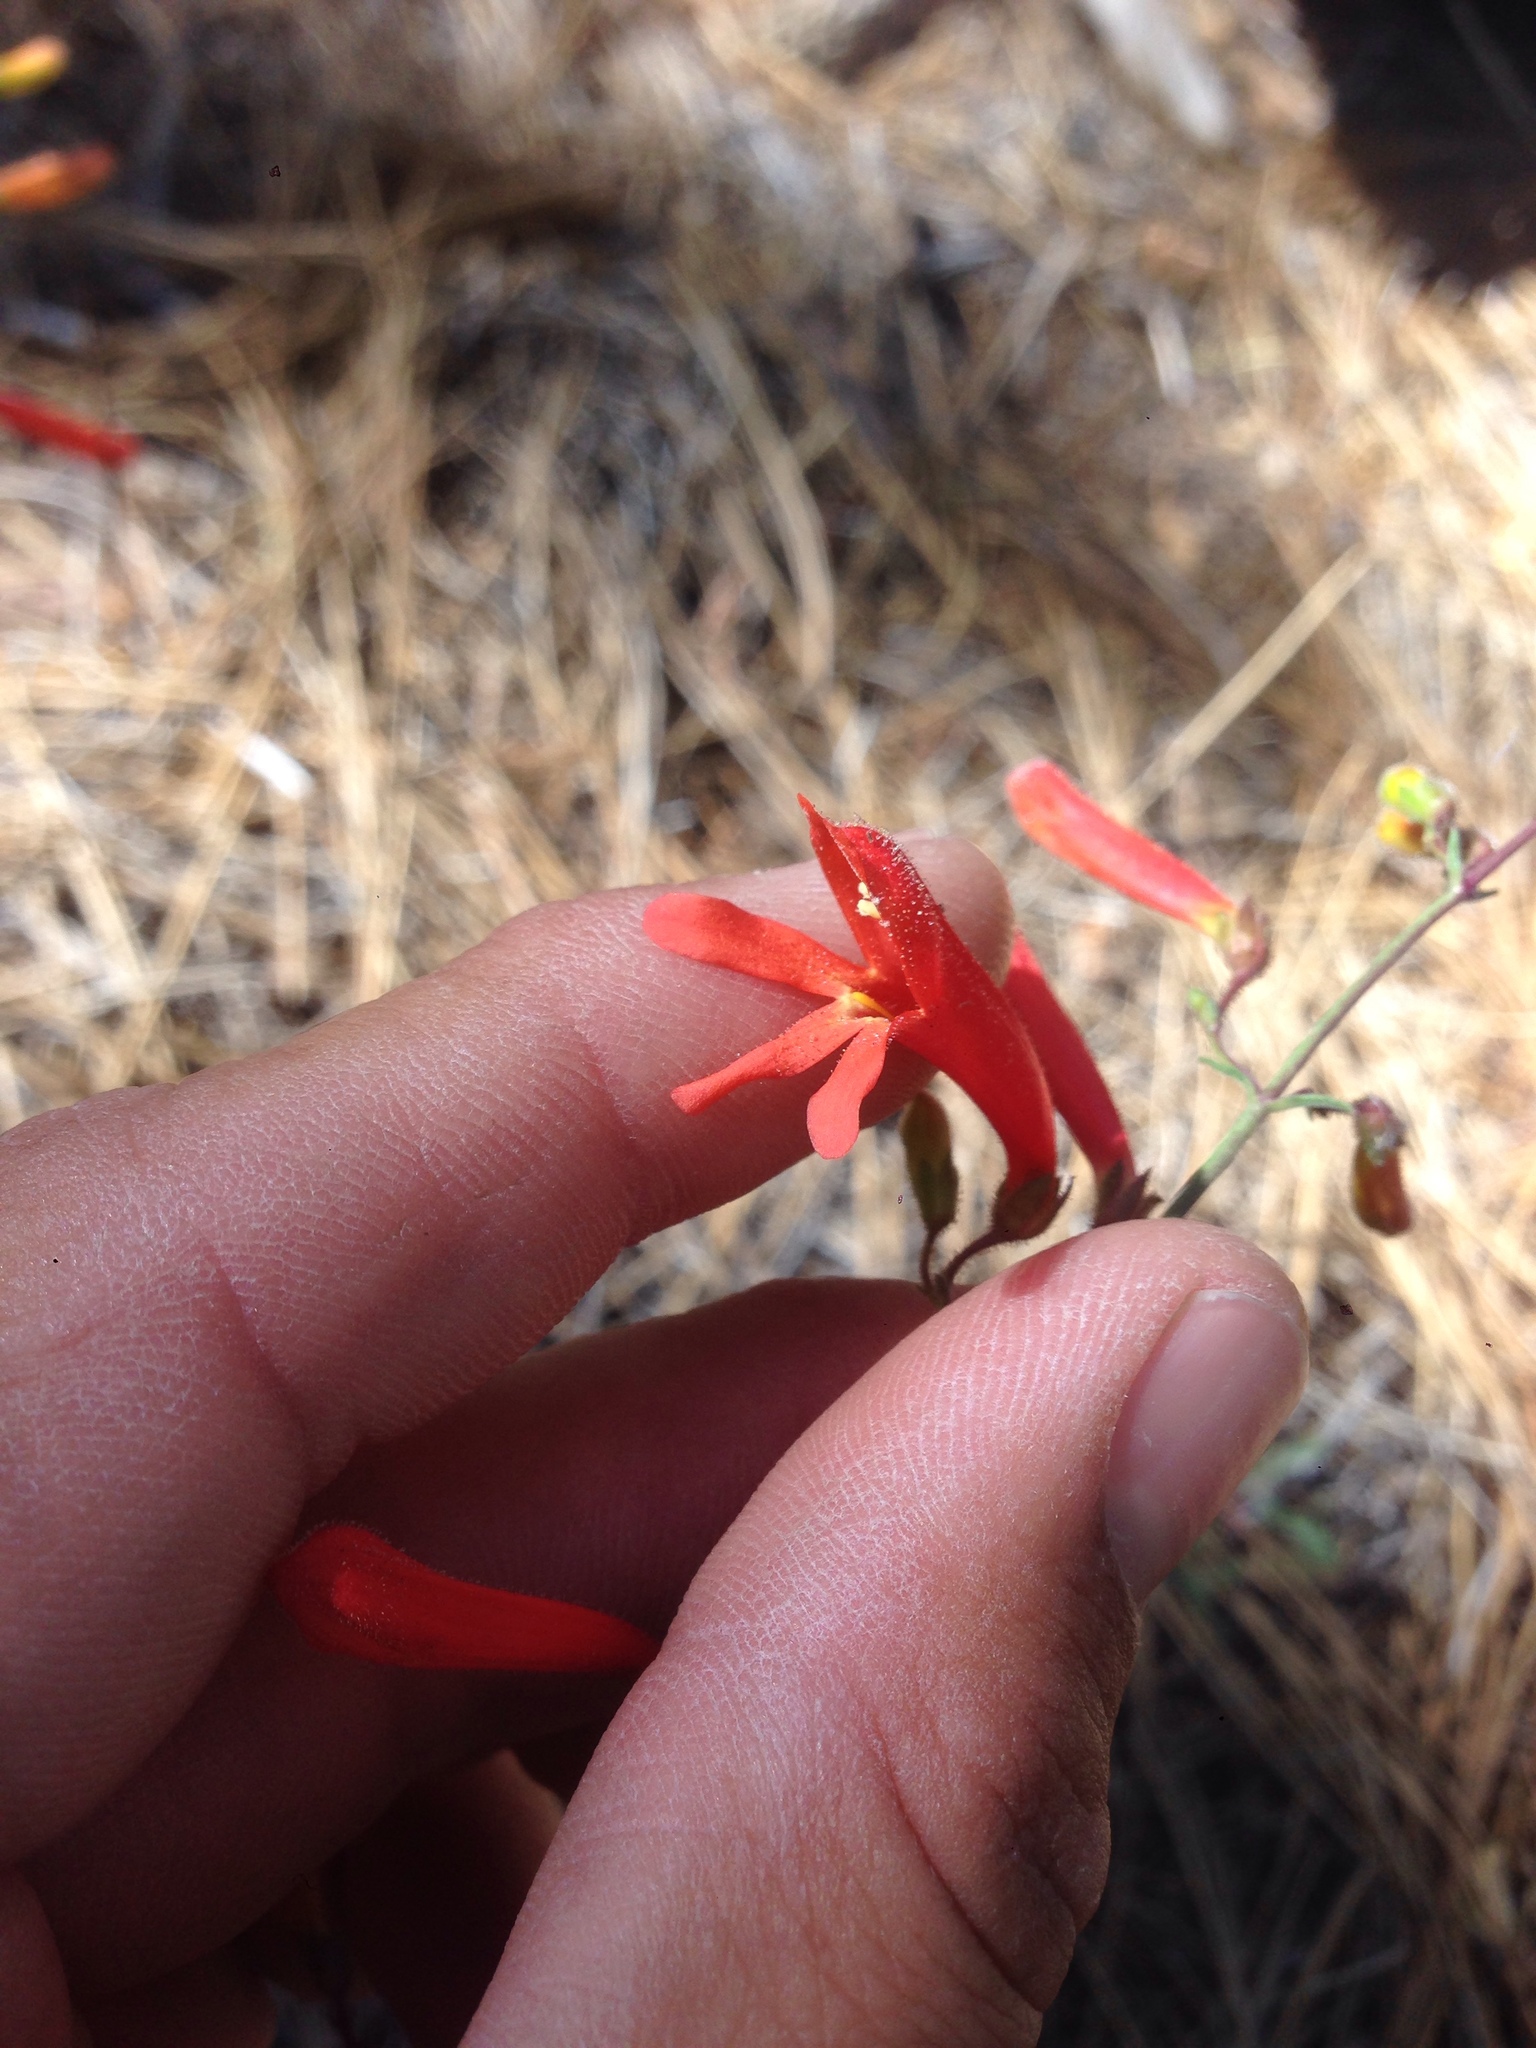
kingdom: Plantae
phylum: Tracheophyta
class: Magnoliopsida
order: Lamiales
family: Plantaginaceae
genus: Penstemon
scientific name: Penstemon rostriflorus
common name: Bridges's penstemon
